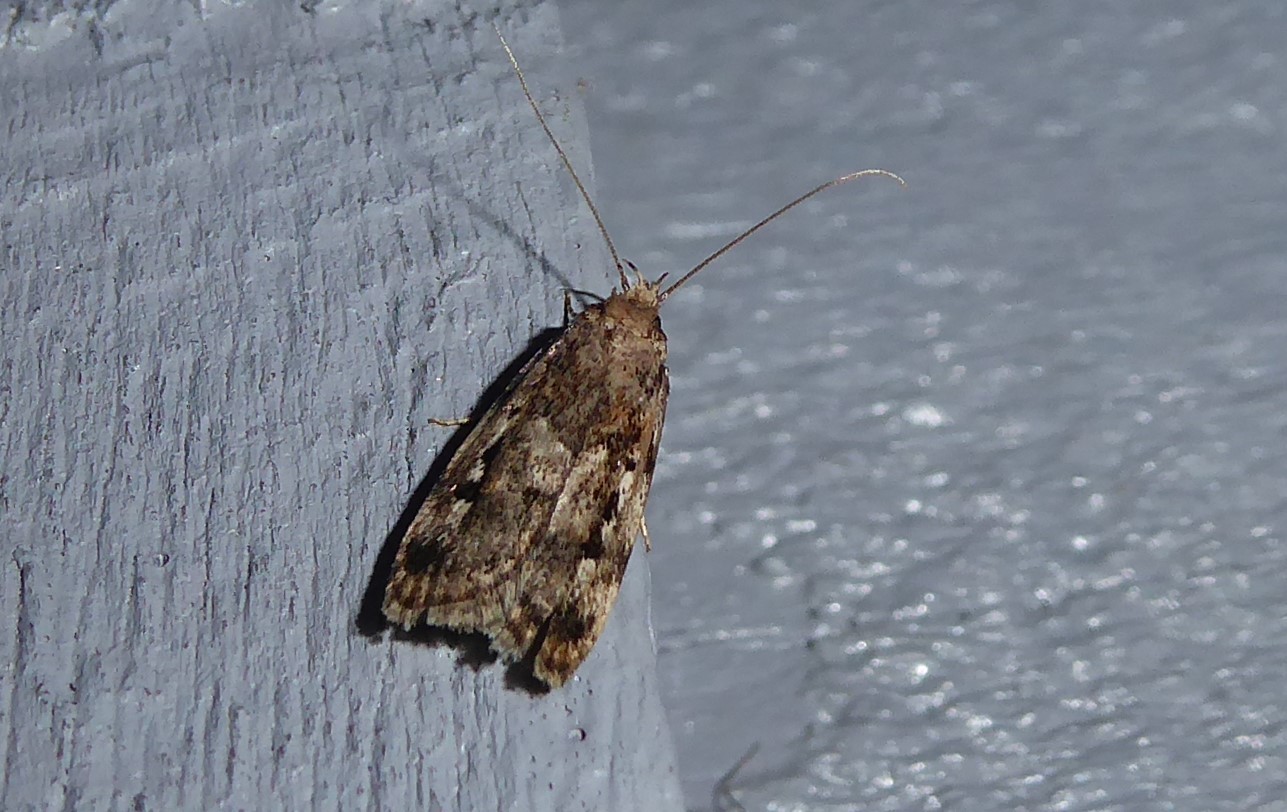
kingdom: Animalia
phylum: Arthropoda
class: Insecta
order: Lepidoptera
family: Oecophoridae
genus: Barea
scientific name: Barea exarcha
